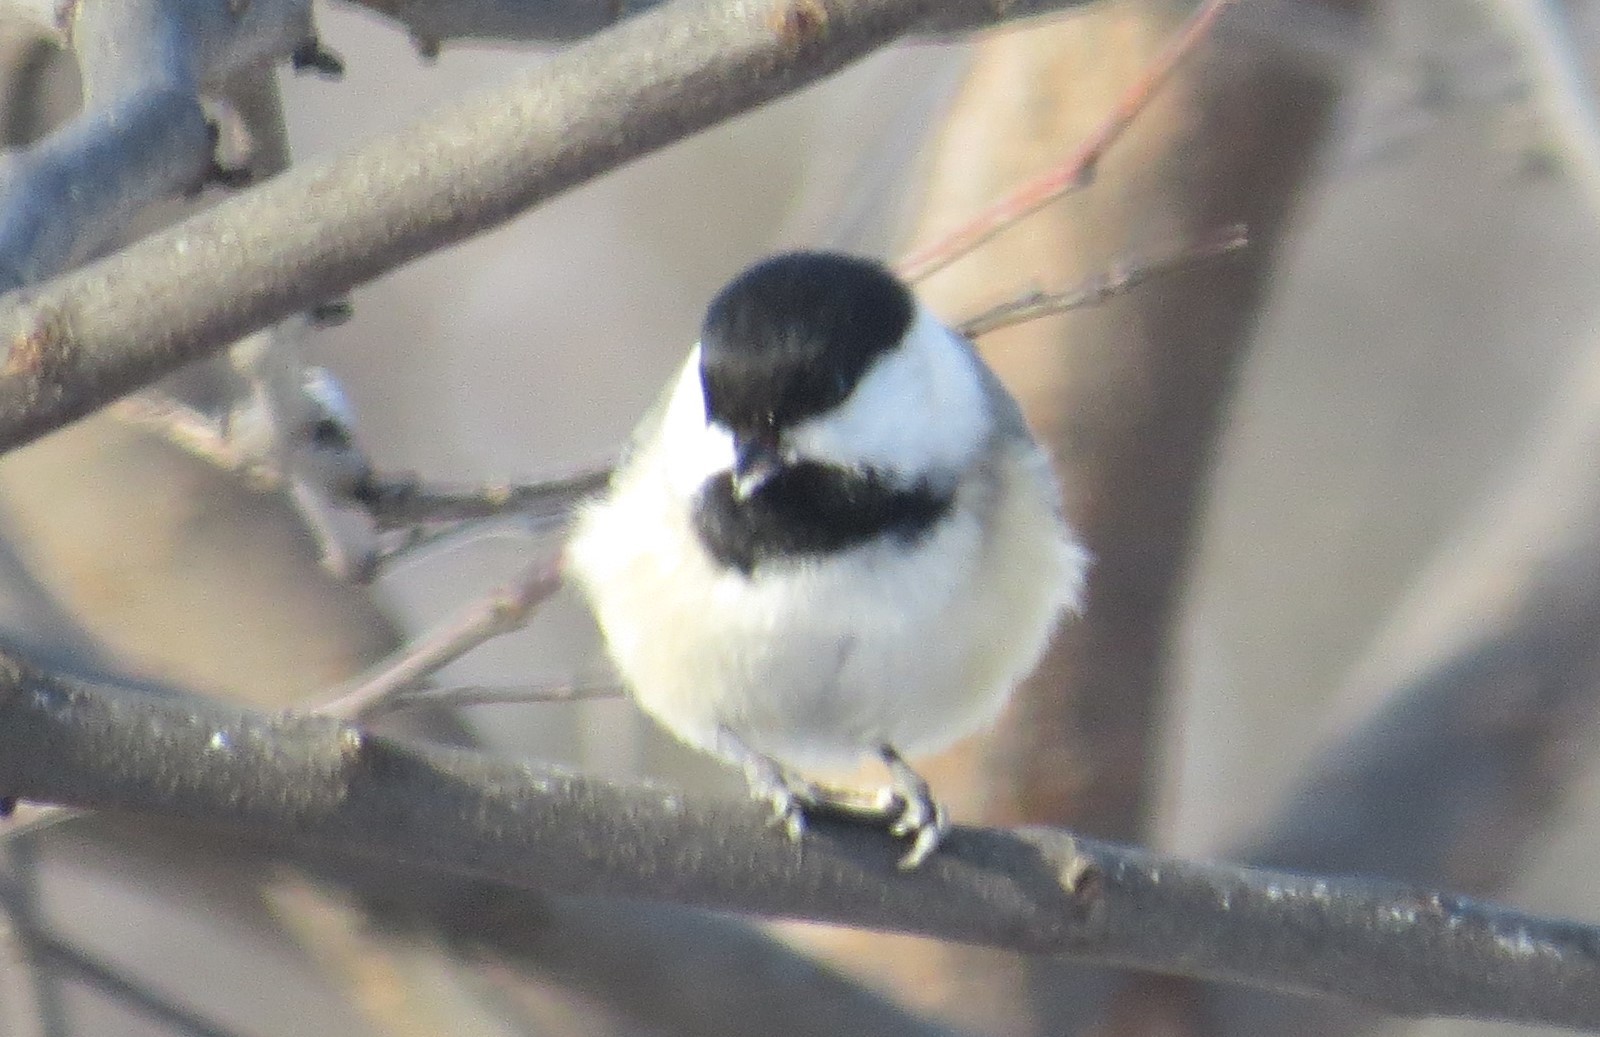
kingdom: Animalia
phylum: Chordata
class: Aves
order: Passeriformes
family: Paridae
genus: Poecile
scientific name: Poecile atricapillus
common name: Black-capped chickadee
